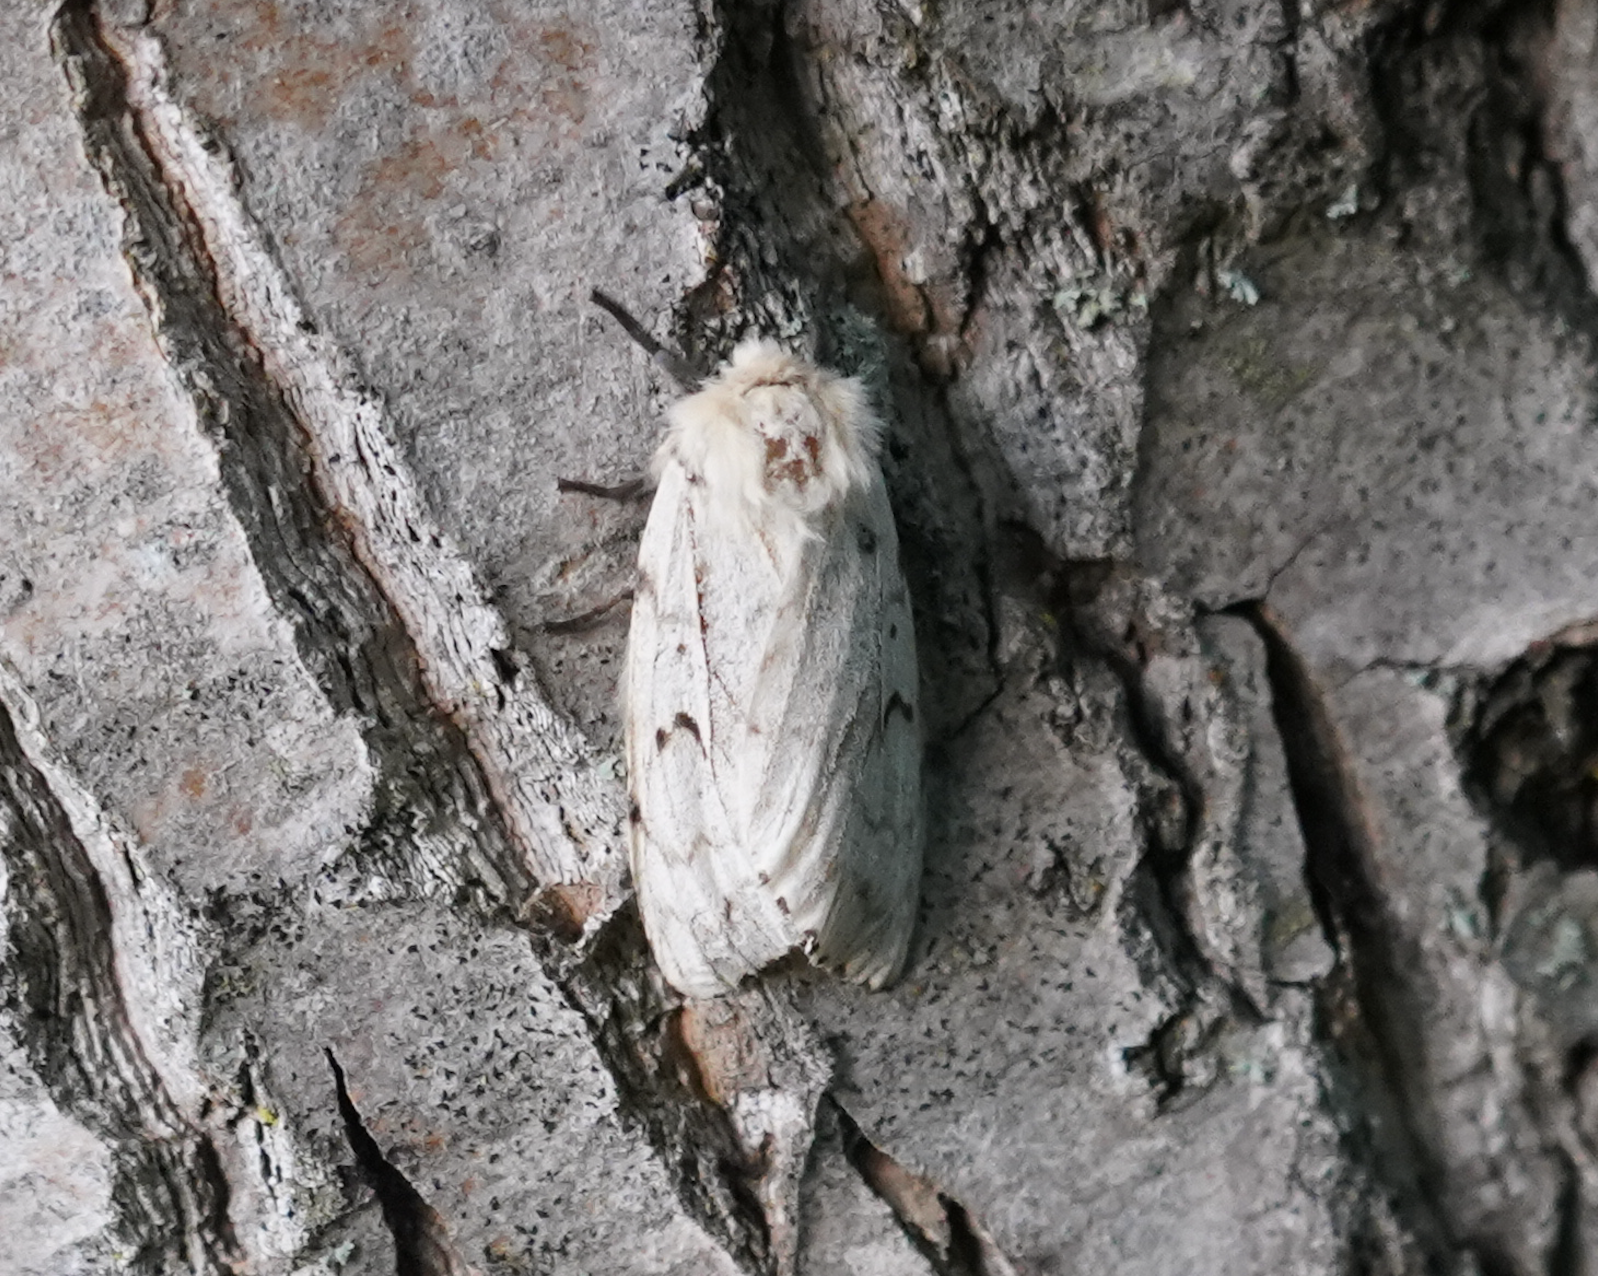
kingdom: Animalia
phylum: Arthropoda
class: Insecta
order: Lepidoptera
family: Erebidae
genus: Lymantria
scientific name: Lymantria dispar
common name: Gypsy moth
